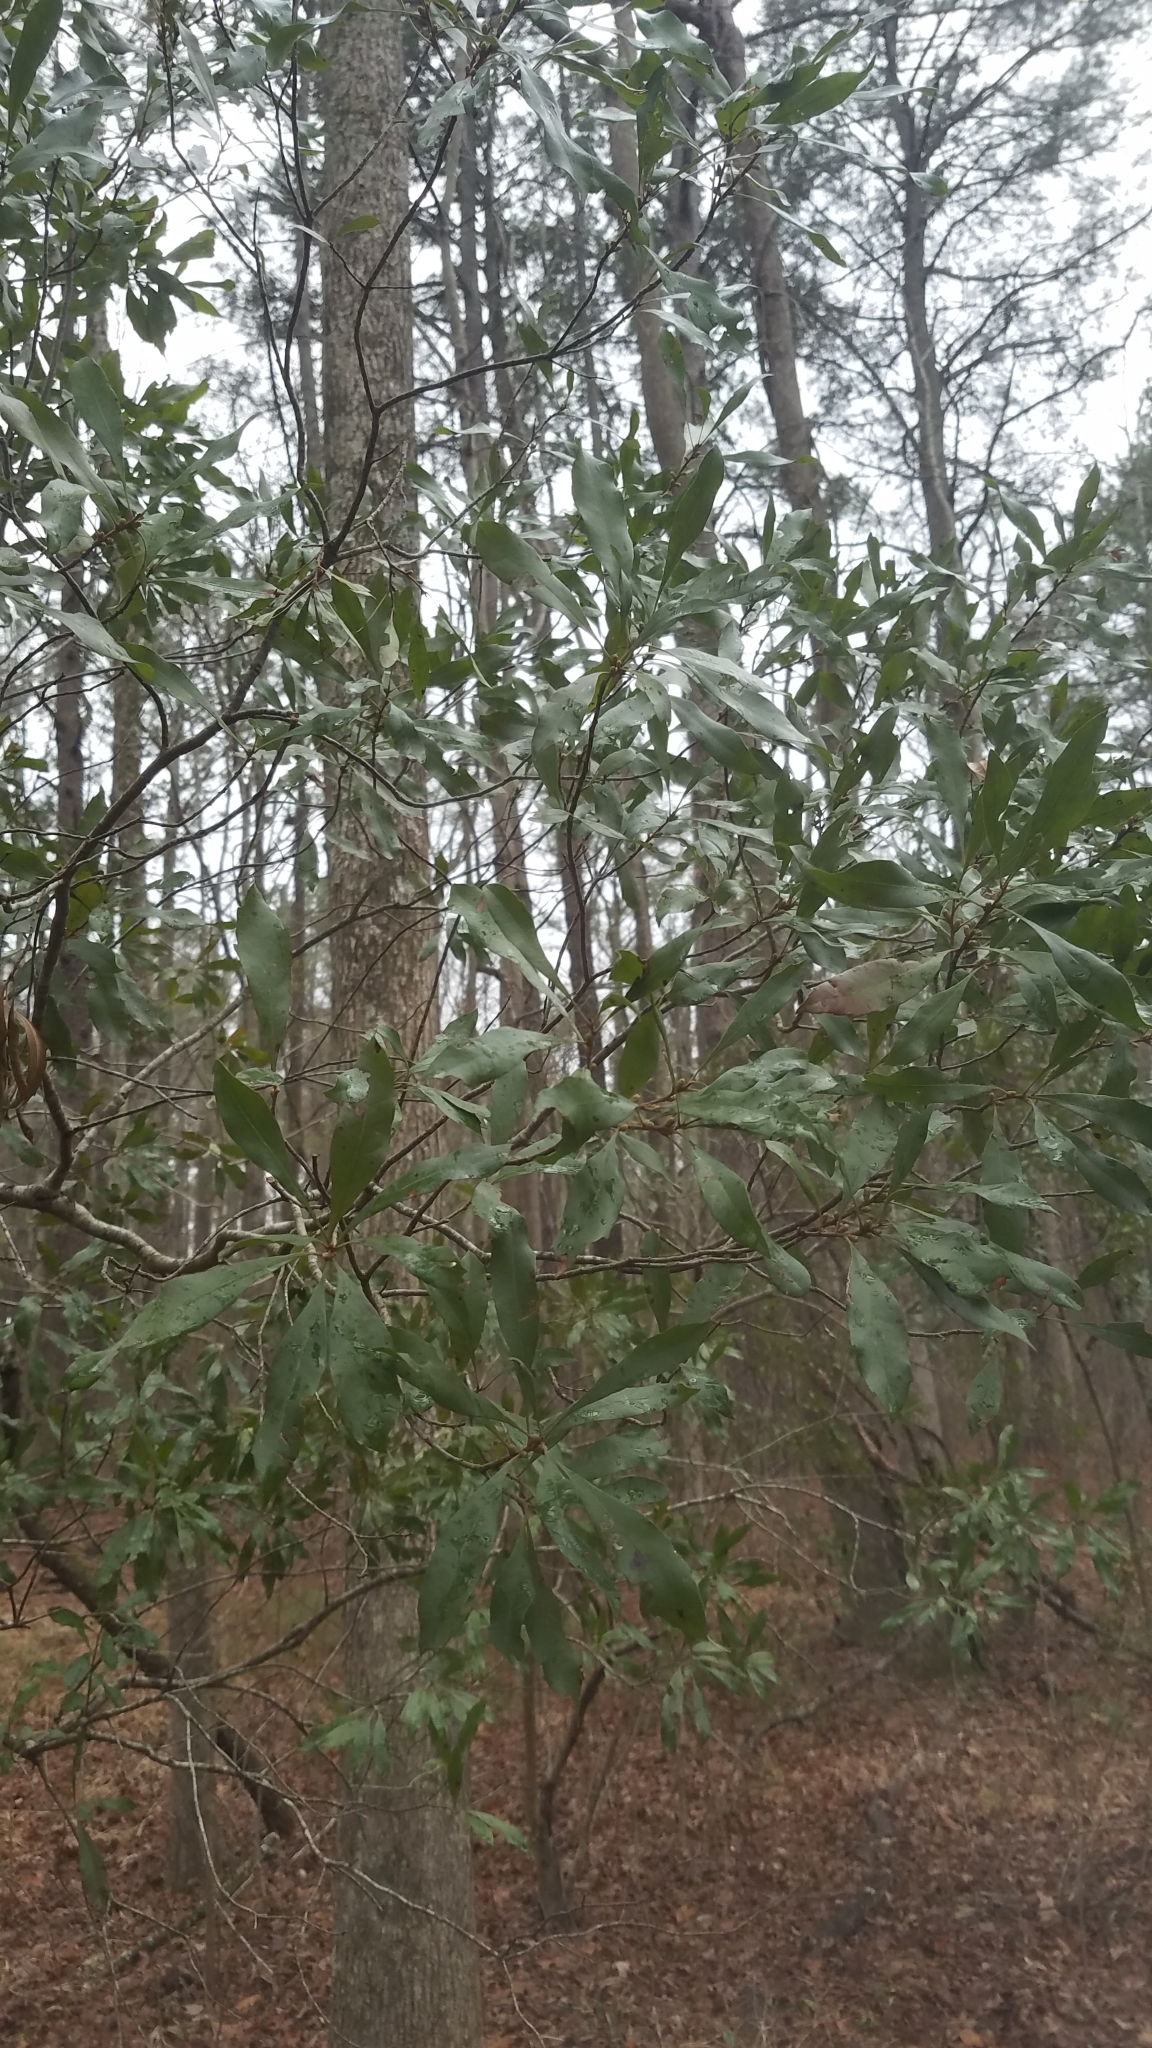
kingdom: Plantae
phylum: Tracheophyta
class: Magnoliopsida
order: Fagales
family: Myricaceae
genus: Morella
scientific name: Morella cerifera
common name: Wax myrtle
